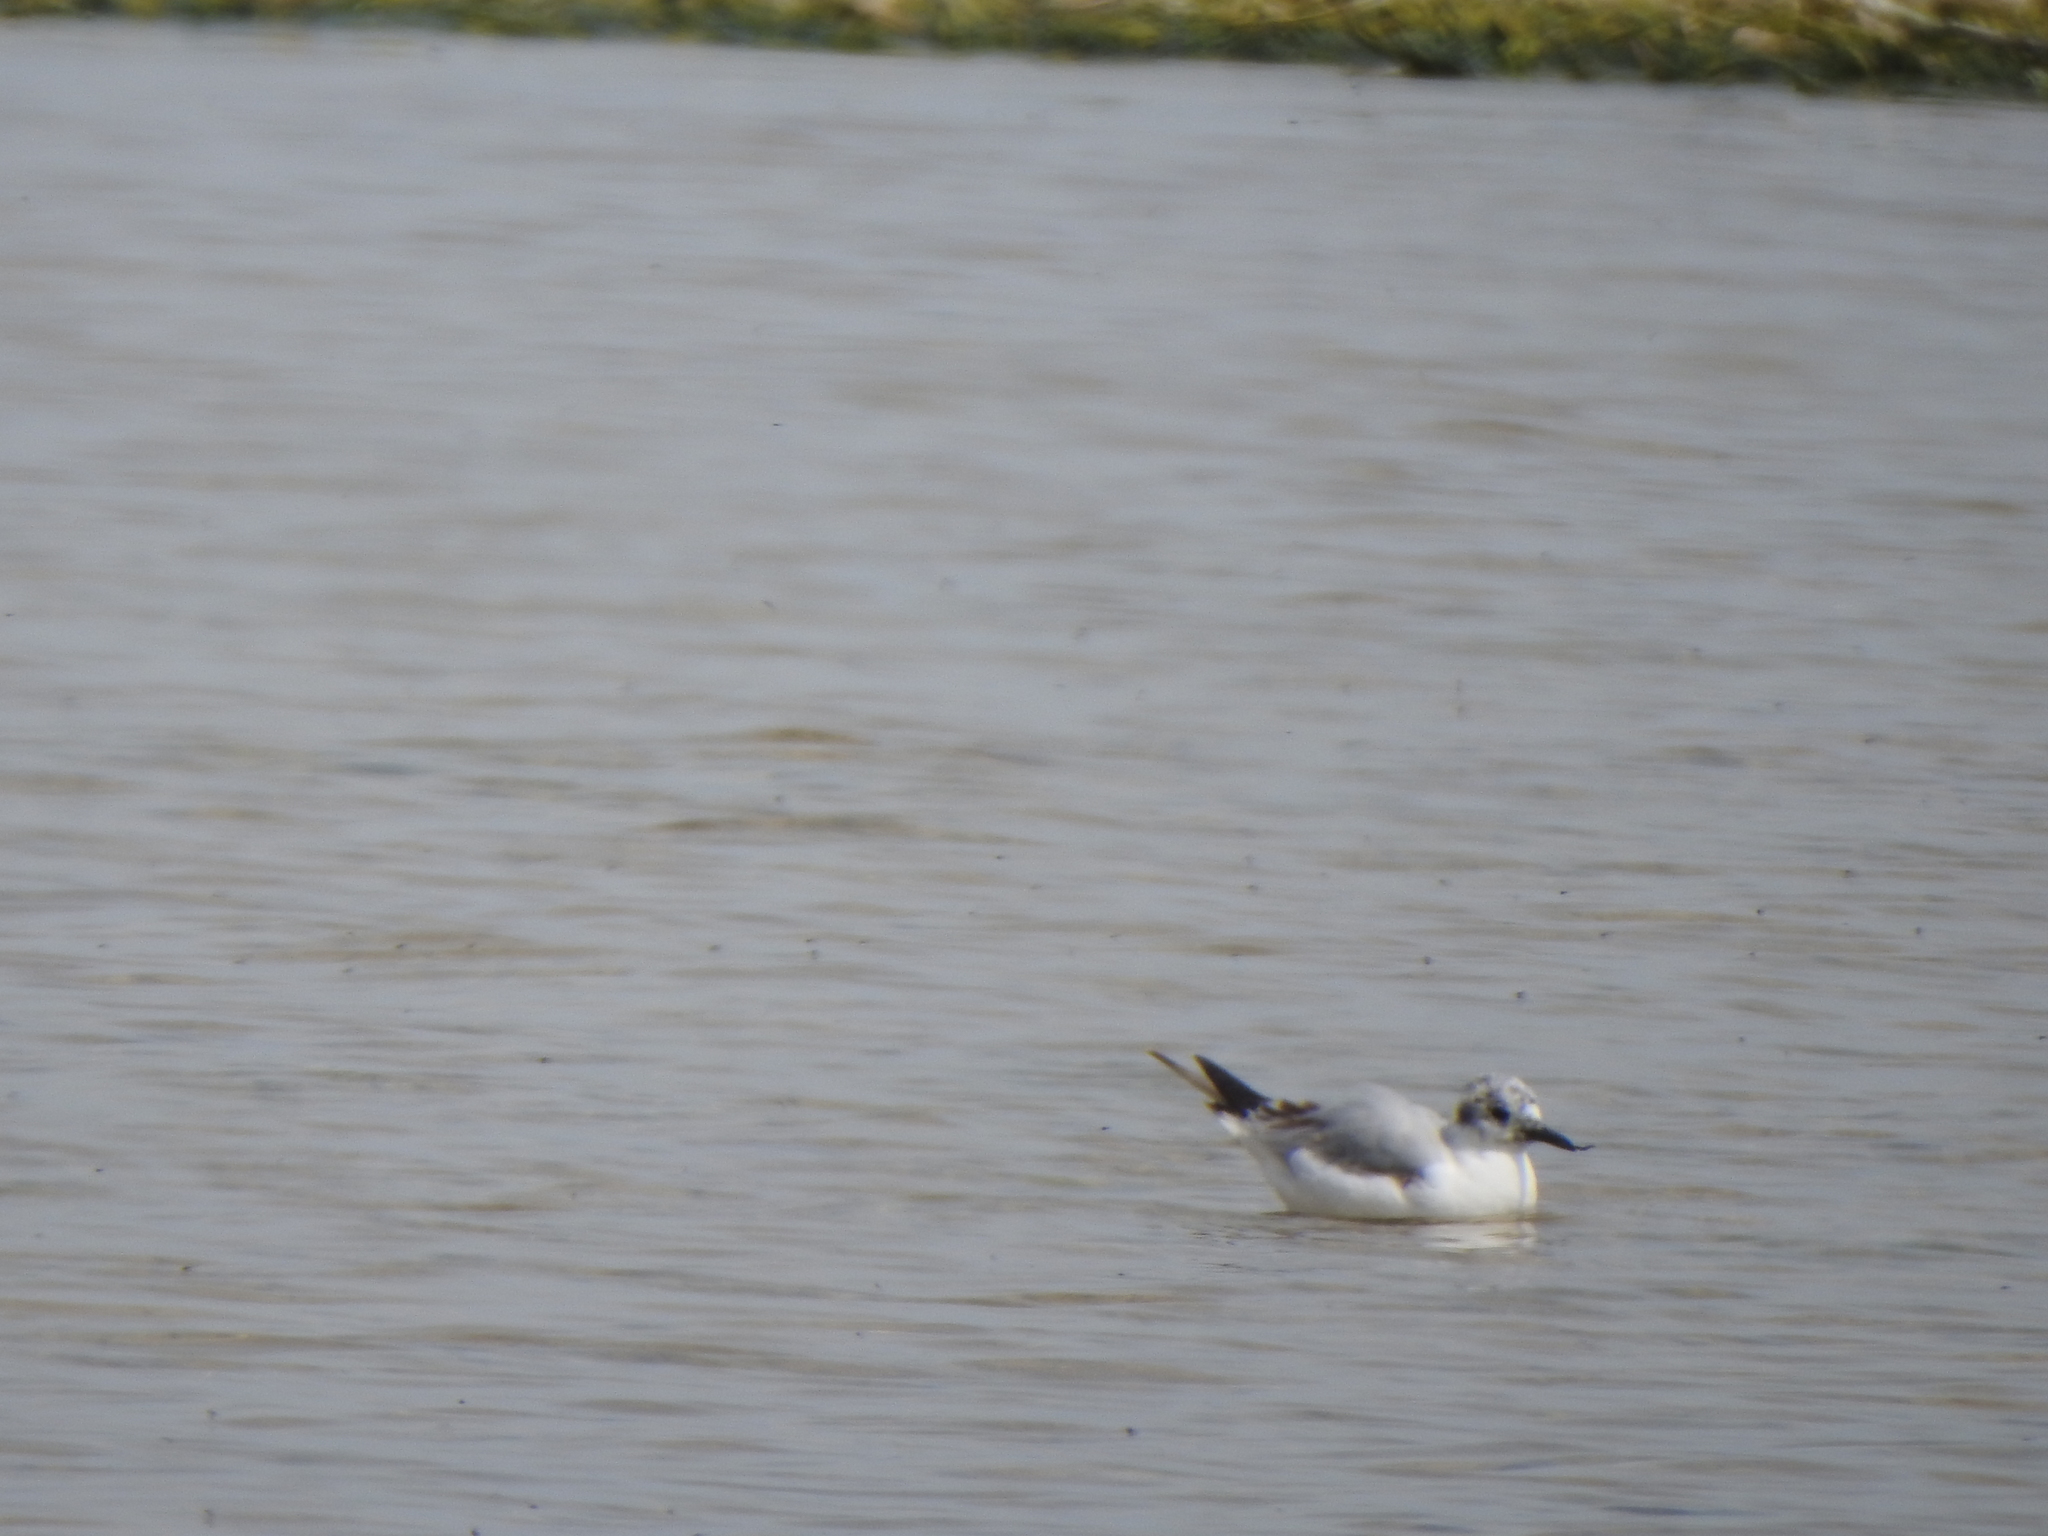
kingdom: Animalia
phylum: Chordata
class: Aves
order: Charadriiformes
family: Laridae
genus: Chroicocephalus
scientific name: Chroicocephalus philadelphia
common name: Bonaparte's gull
